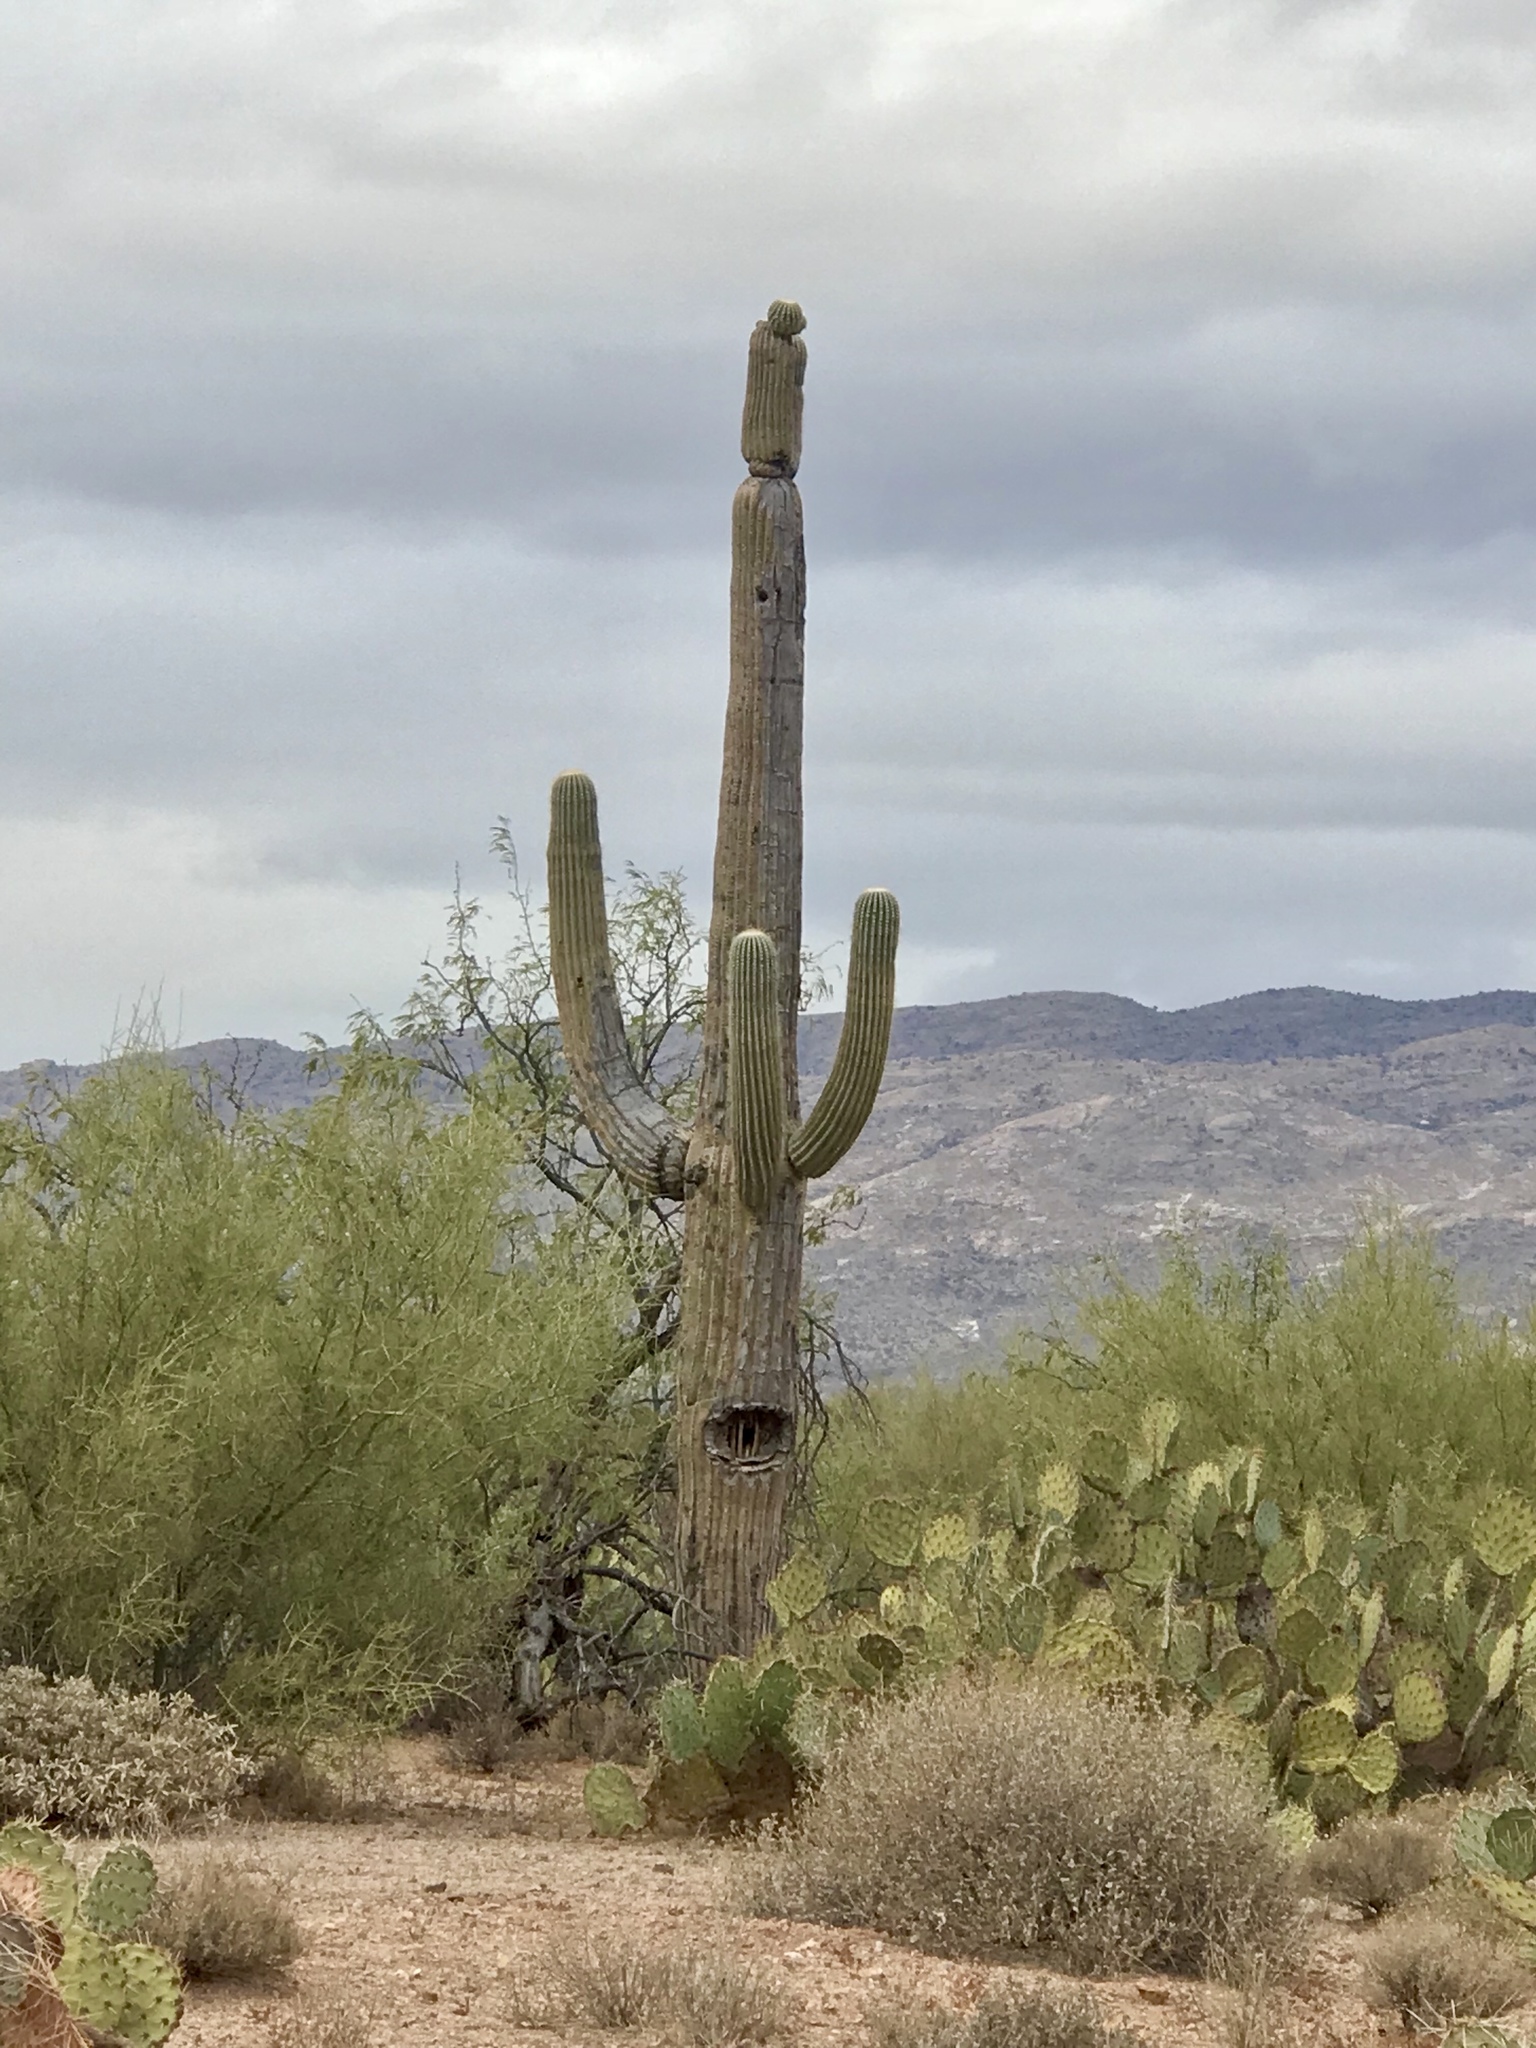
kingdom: Plantae
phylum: Tracheophyta
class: Magnoliopsida
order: Caryophyllales
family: Cactaceae
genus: Carnegiea
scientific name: Carnegiea gigantea
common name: Saguaro
